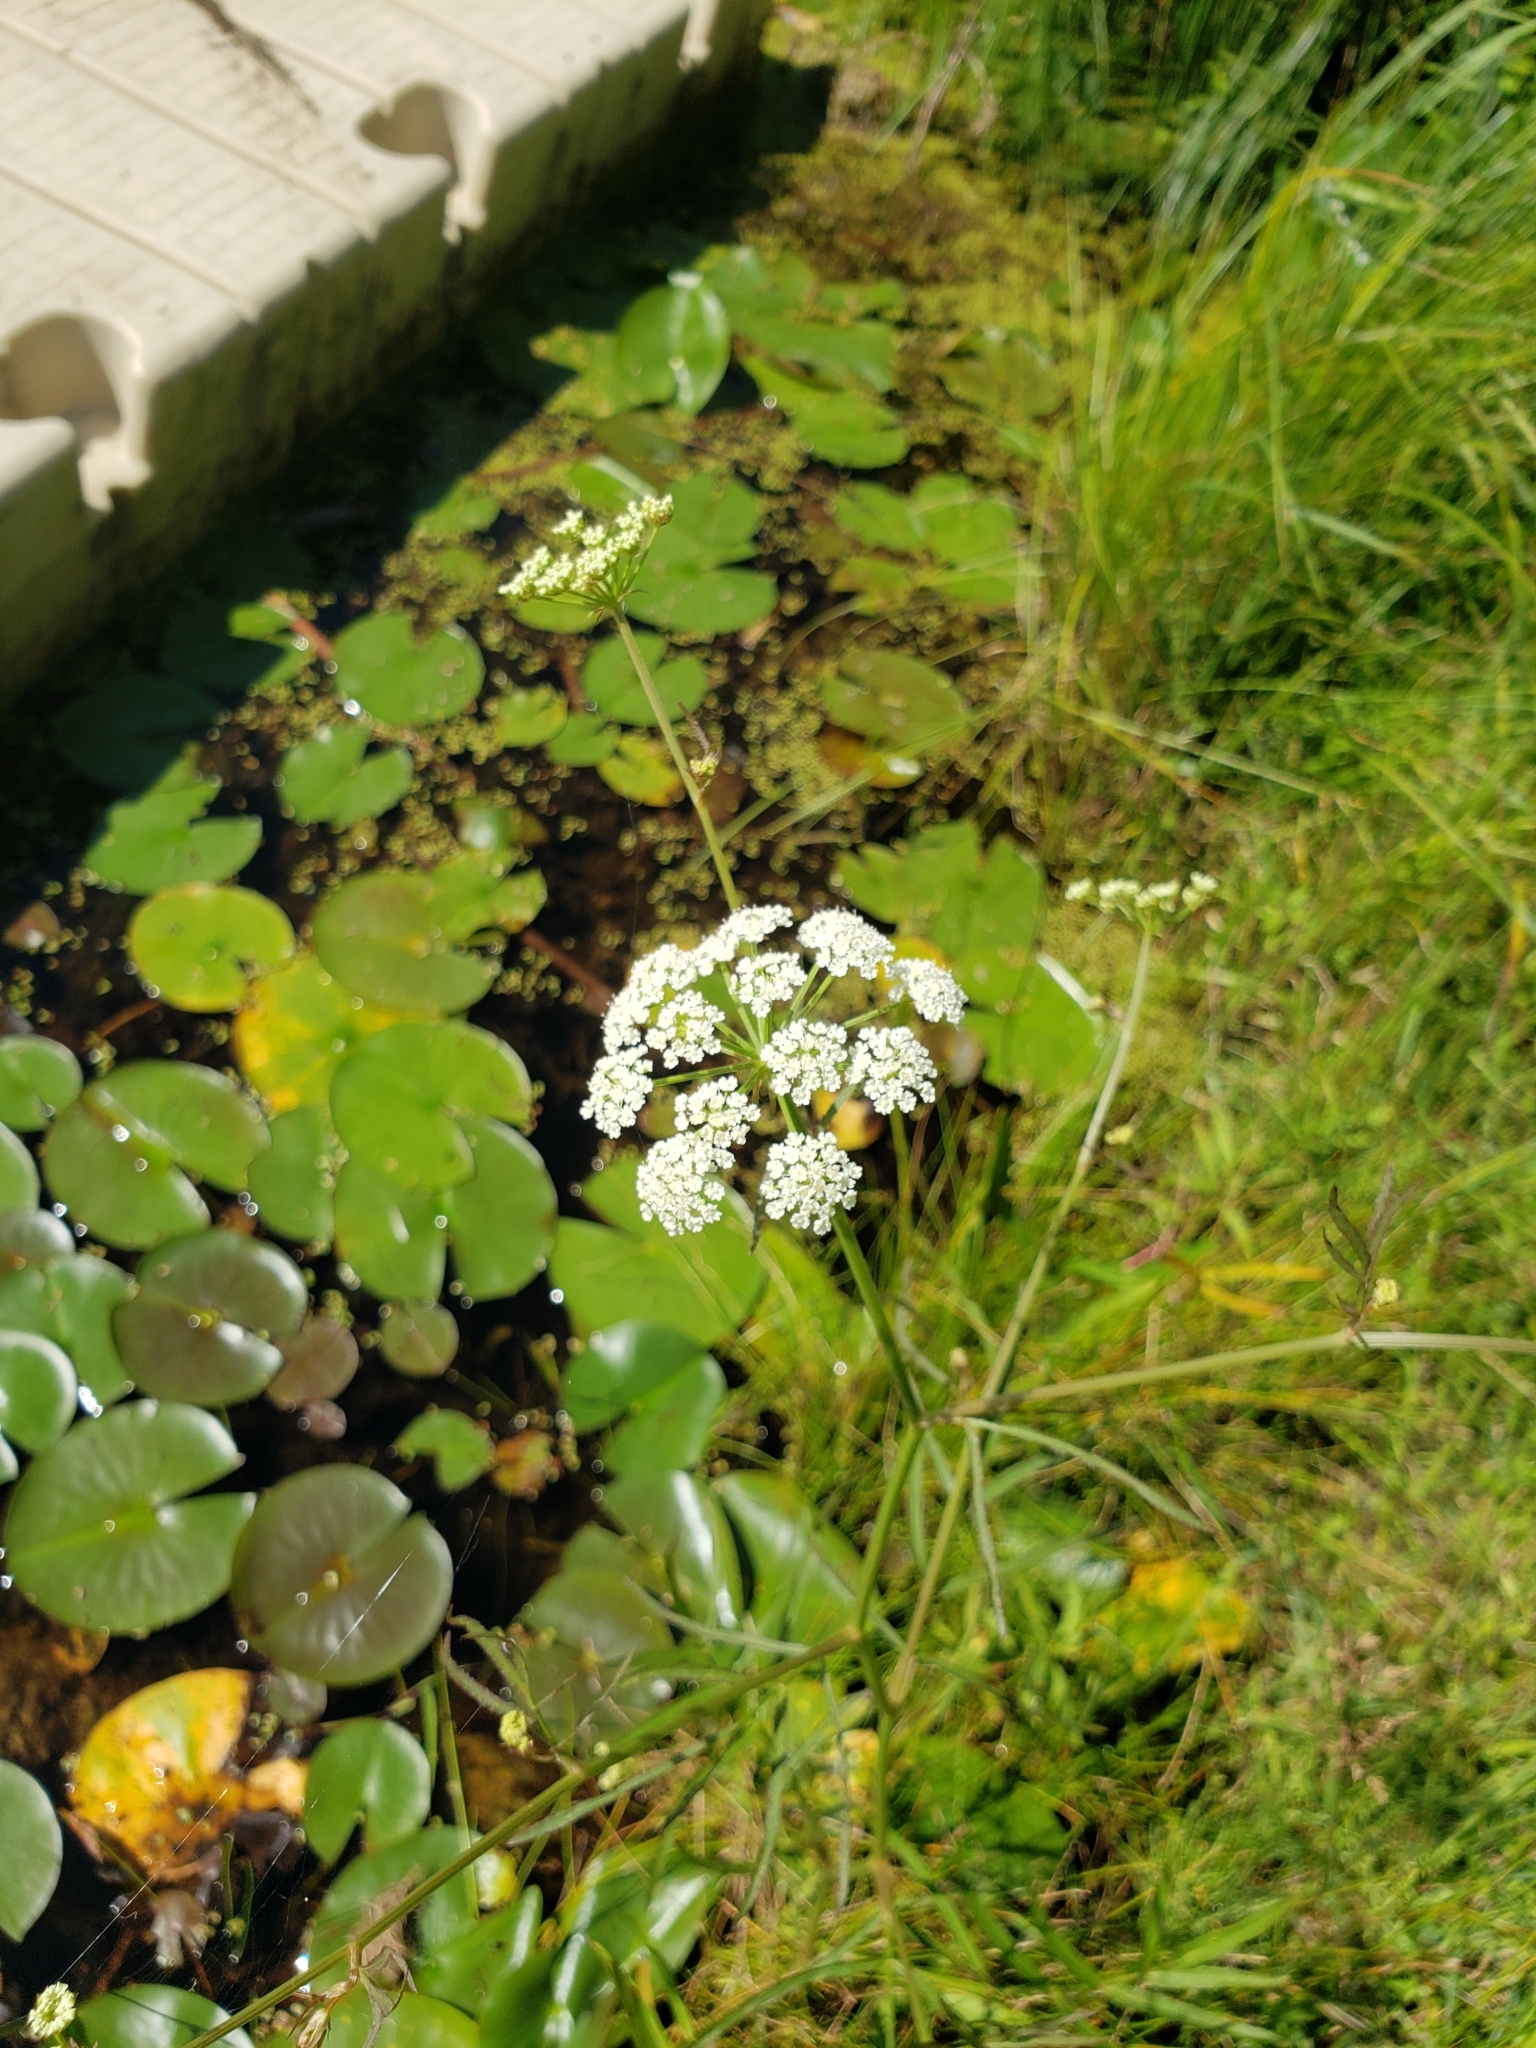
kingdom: Plantae
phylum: Tracheophyta
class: Magnoliopsida
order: Apiales
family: Apiaceae
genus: Sium
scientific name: Sium suave
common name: Hemlock water-parsnip
